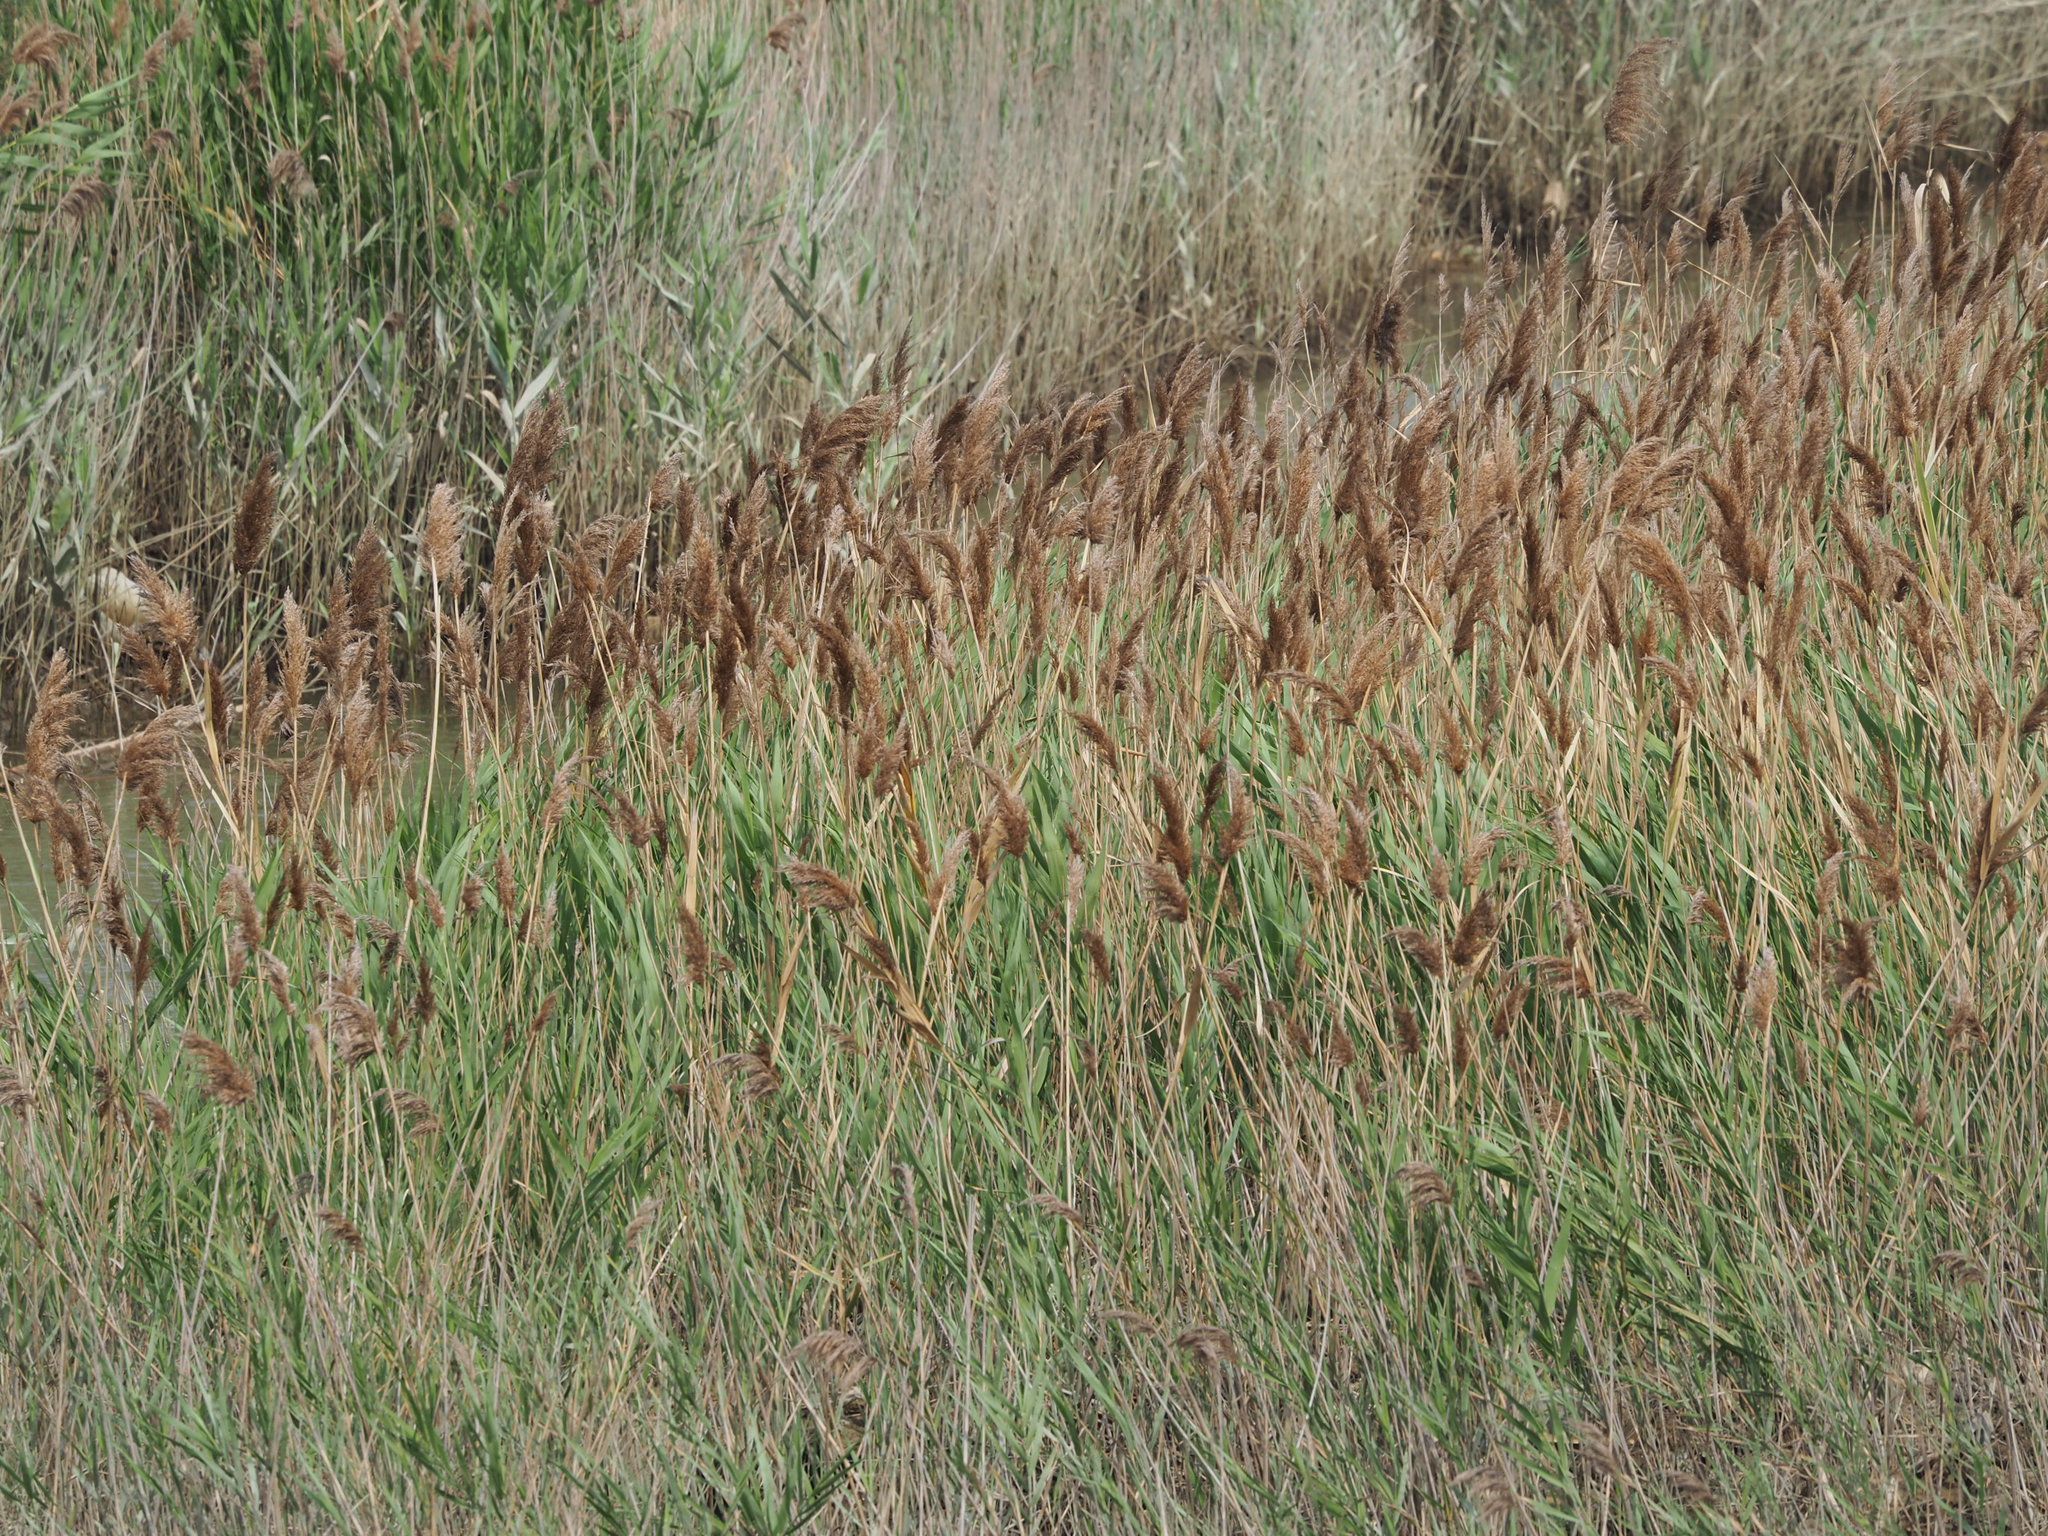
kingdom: Plantae
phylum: Tracheophyta
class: Liliopsida
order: Poales
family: Poaceae
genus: Phragmites
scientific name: Phragmites australis
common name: Common reed
